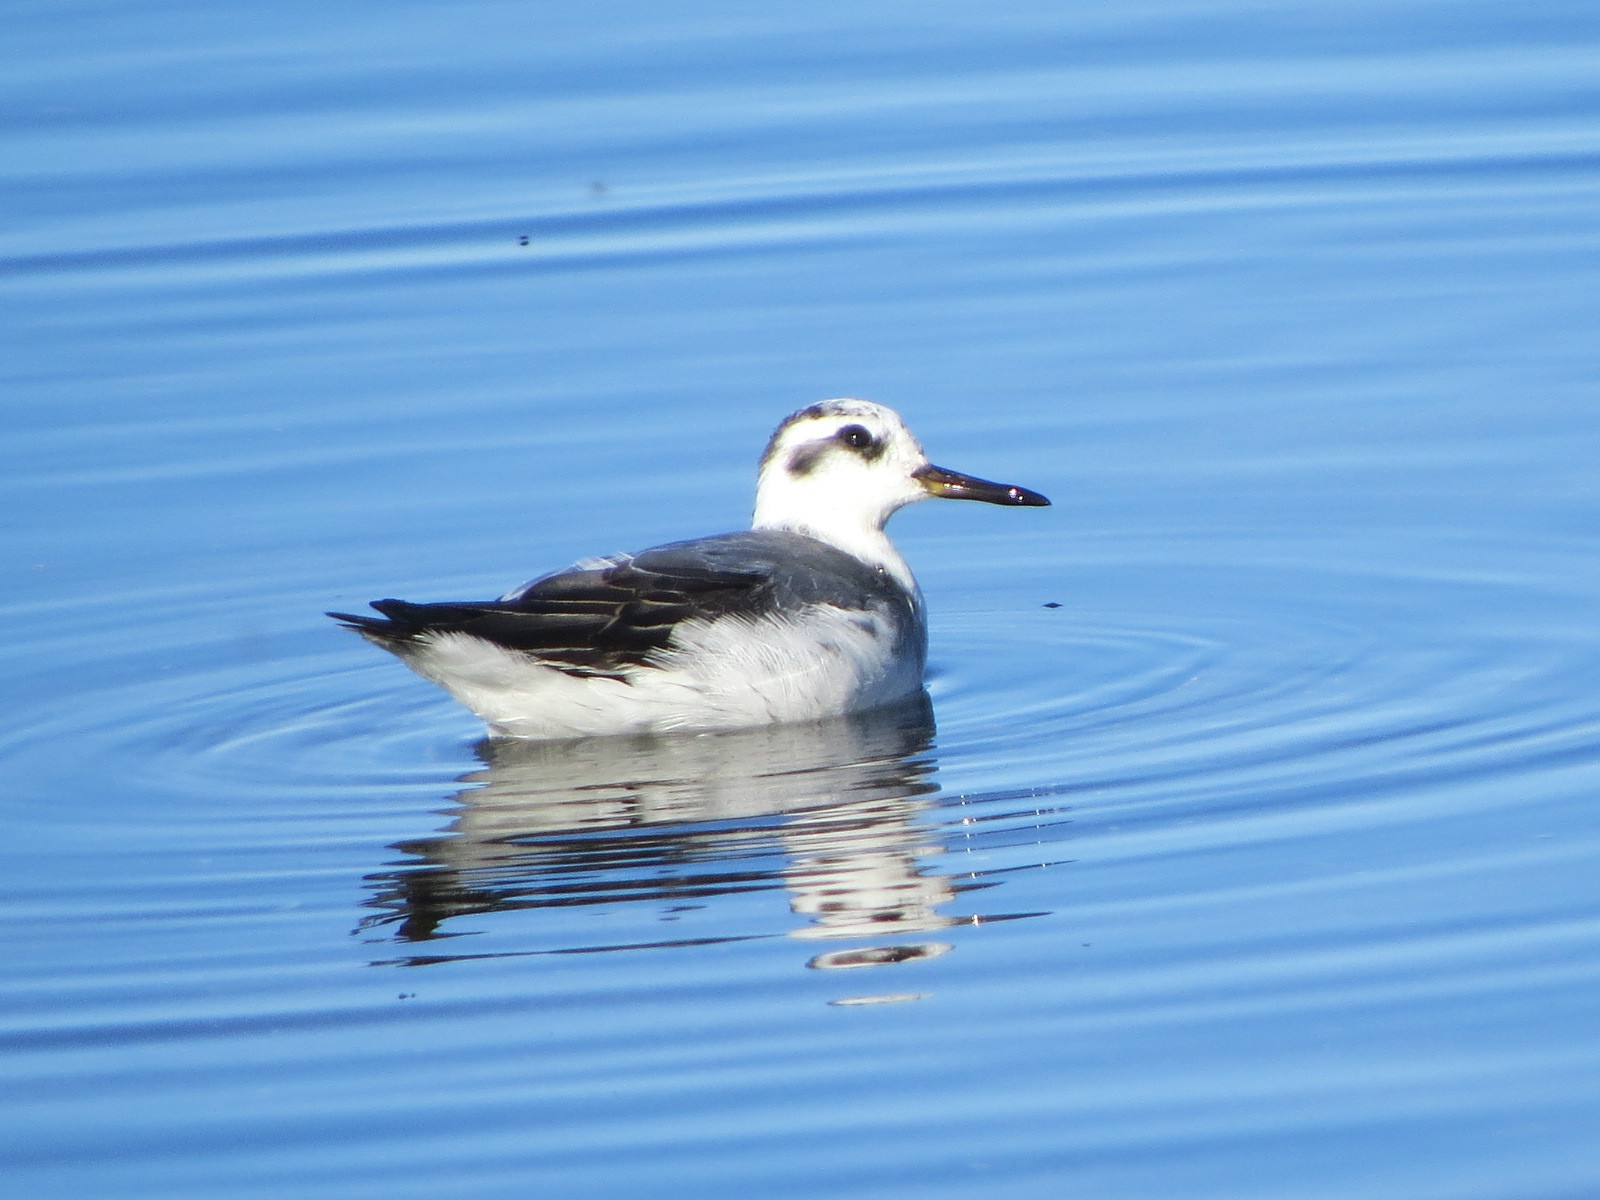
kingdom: Animalia
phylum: Chordata
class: Aves
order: Charadriiformes
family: Scolopacidae
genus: Phalaropus
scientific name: Phalaropus fulicarius
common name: Red phalarope
